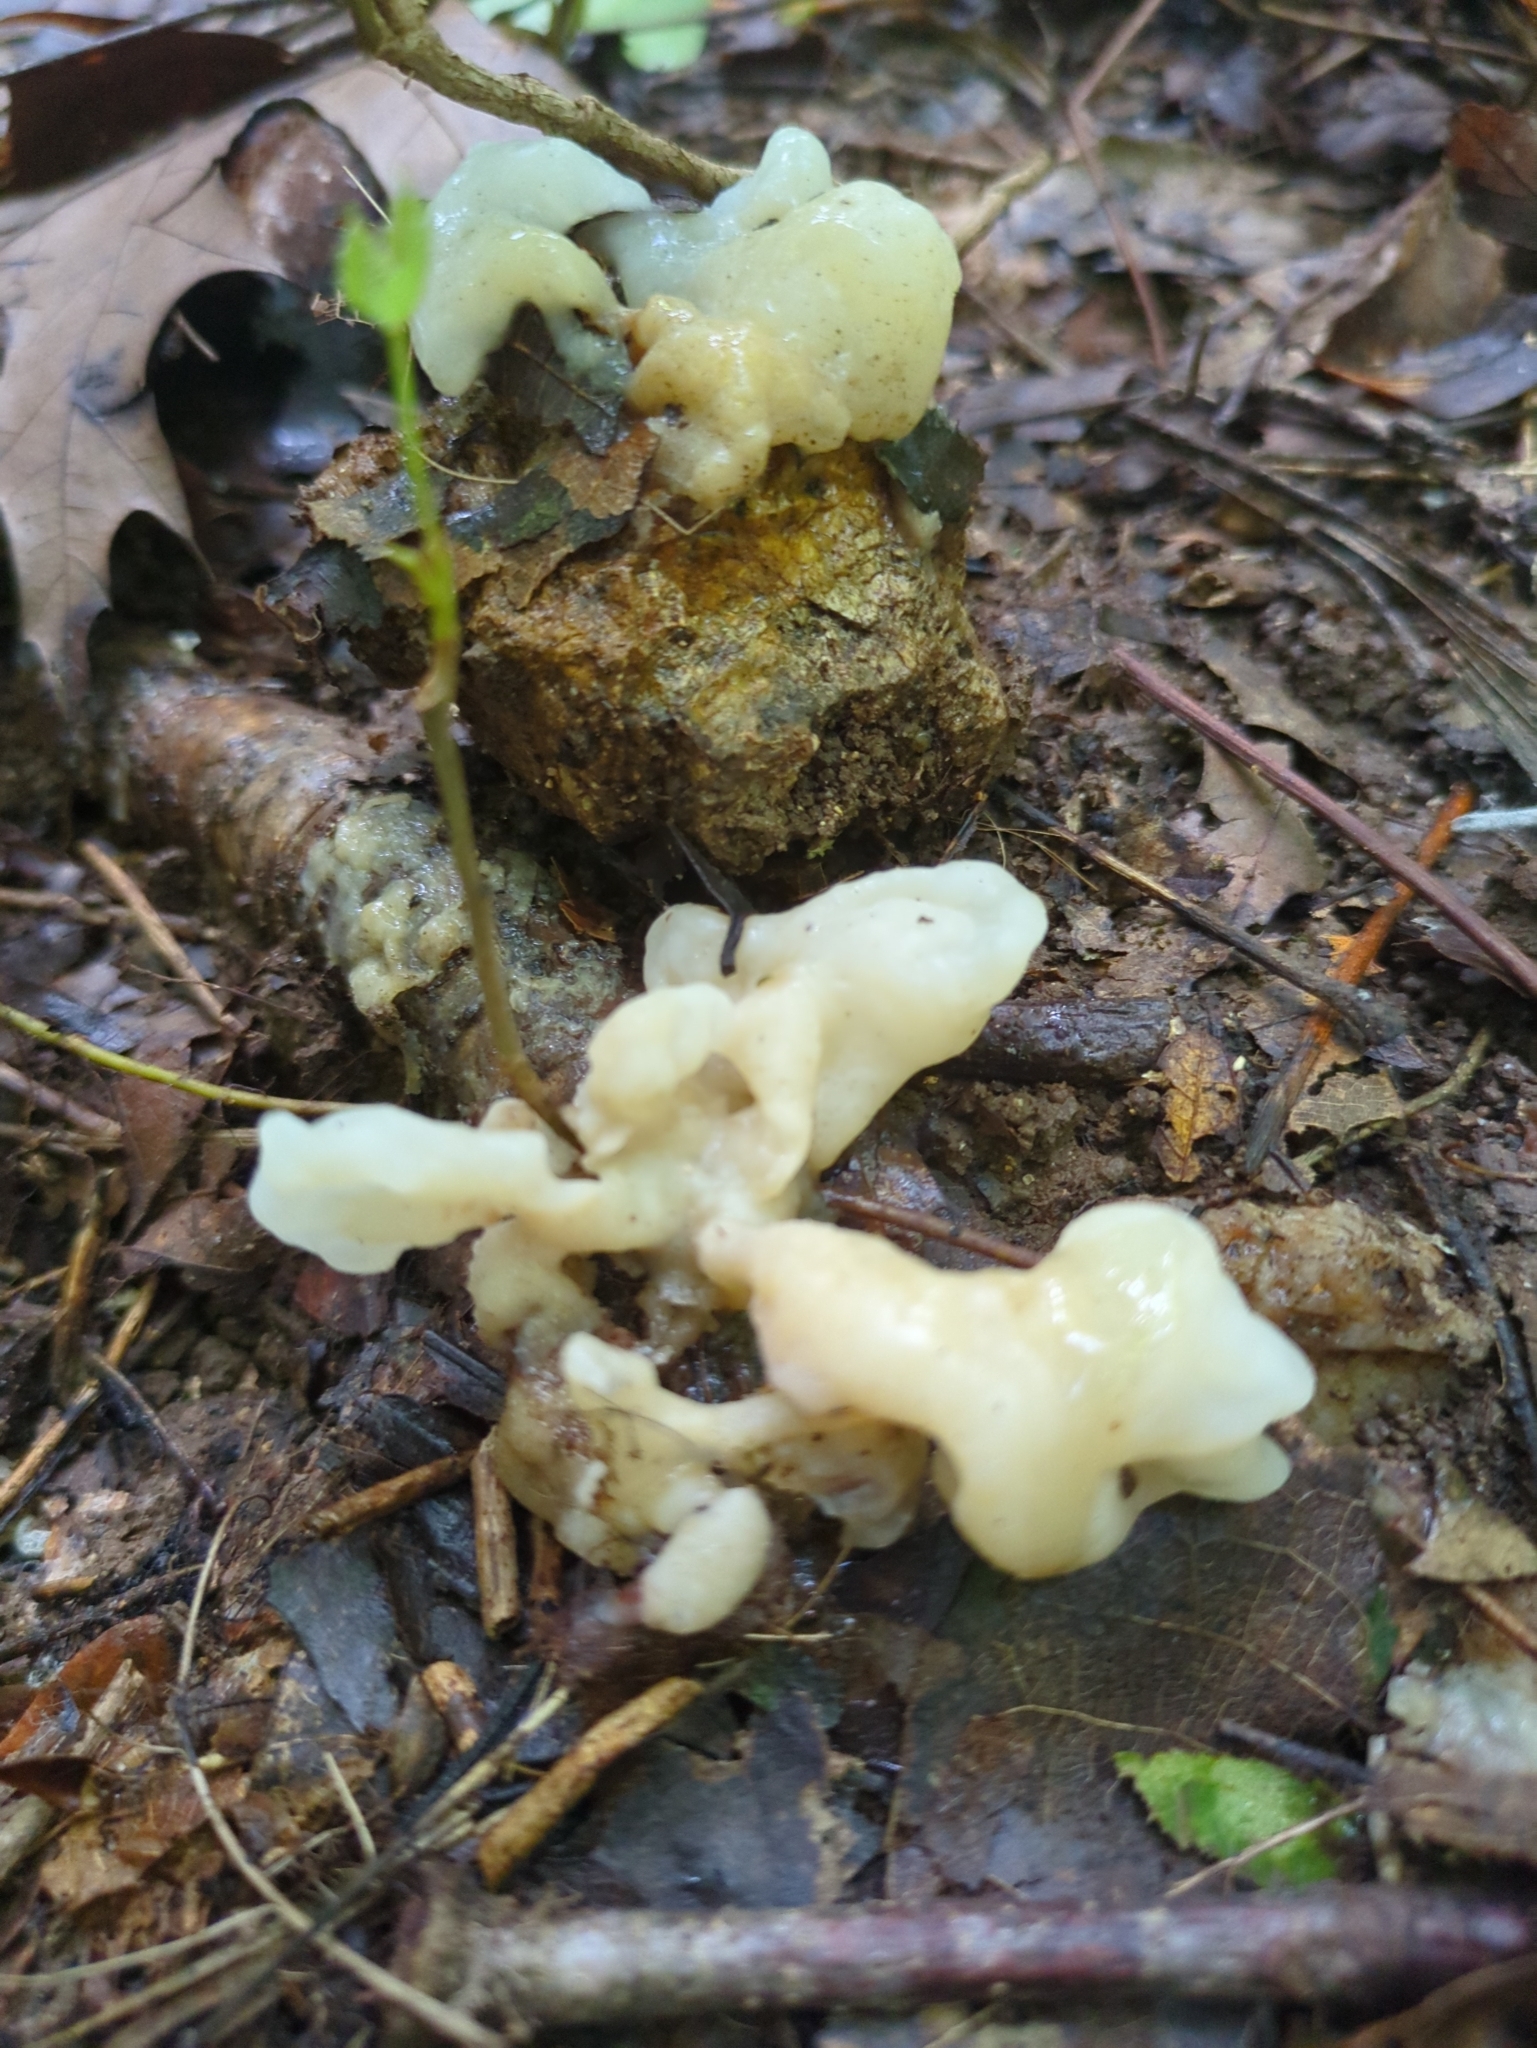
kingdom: Fungi
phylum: Basidiomycota
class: Agaricomycetes
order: Sebacinales
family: Sebacinaceae
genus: Helvellosebacina
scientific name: Helvellosebacina concrescens
